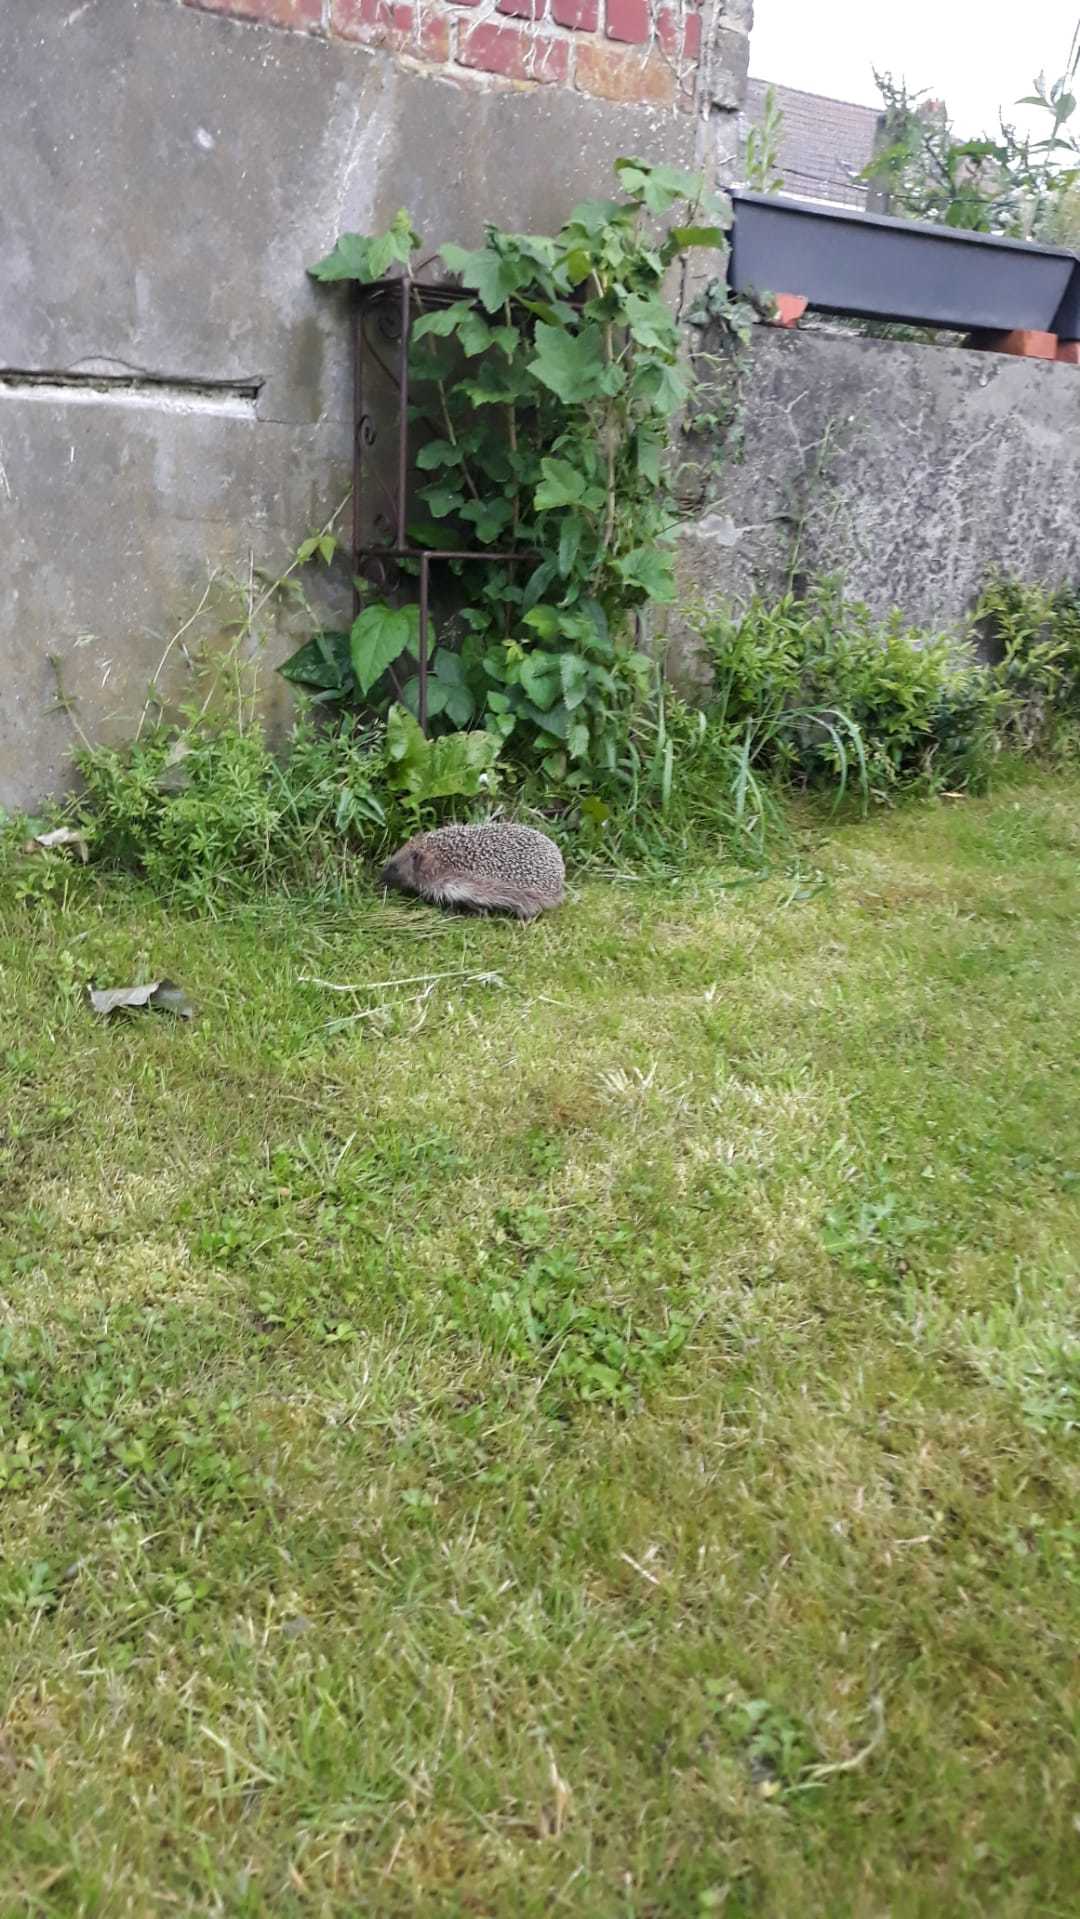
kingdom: Animalia
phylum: Chordata
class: Mammalia
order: Erinaceomorpha
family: Erinaceidae
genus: Erinaceus
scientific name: Erinaceus europaeus
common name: West european hedgehog
